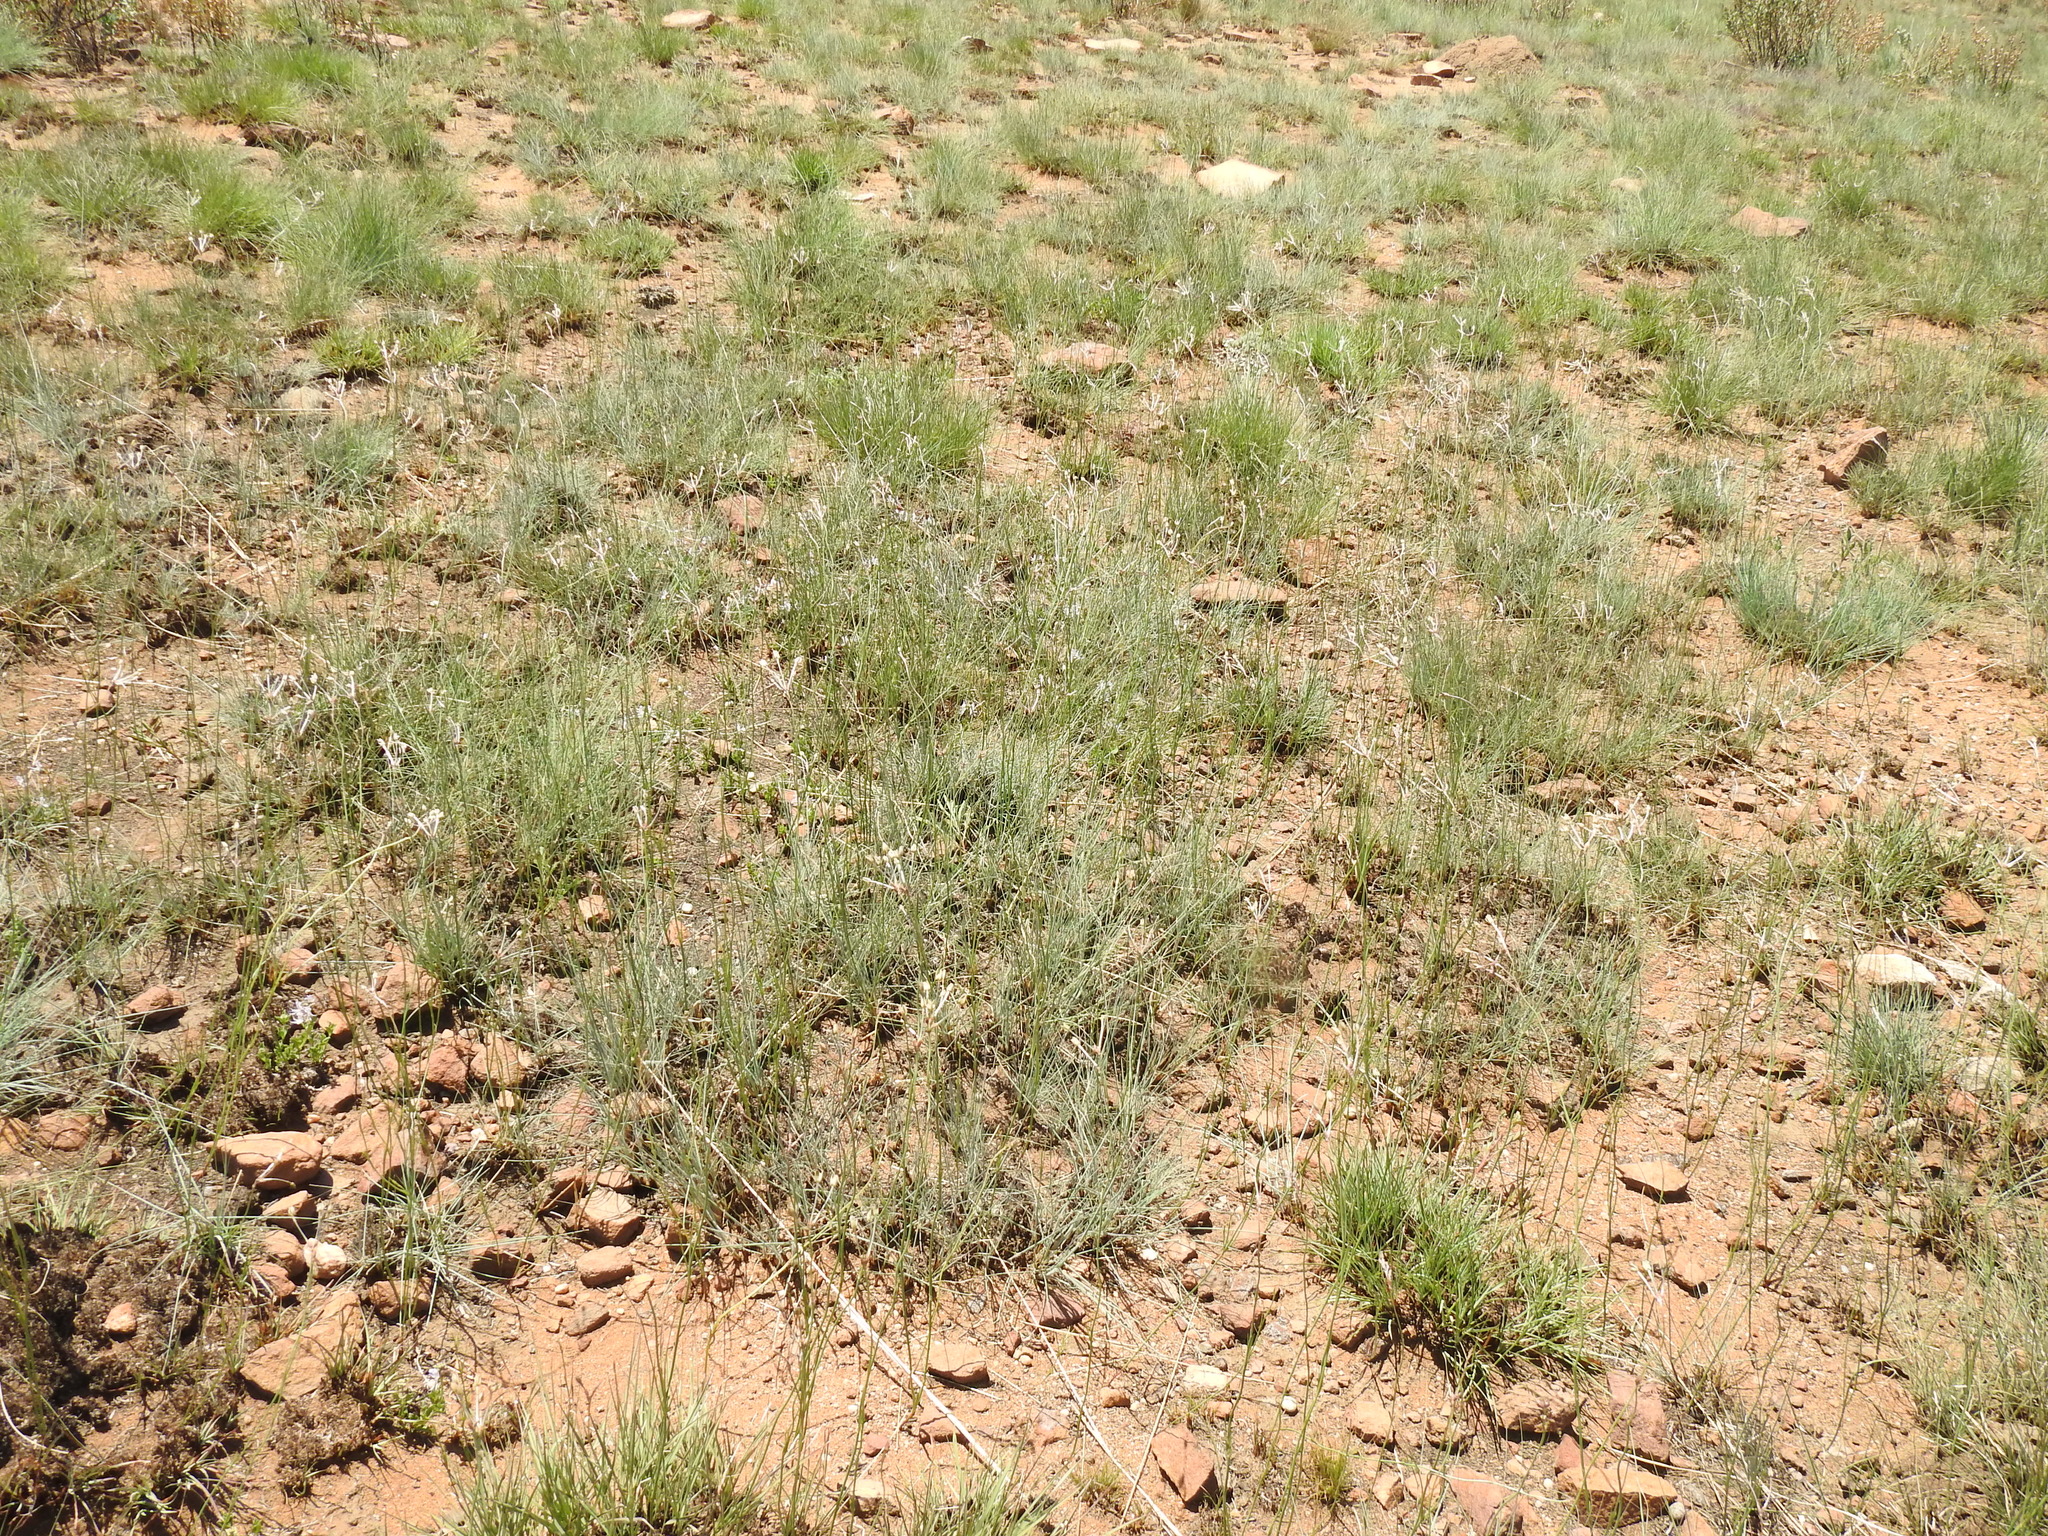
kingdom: Plantae
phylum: Tracheophyta
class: Magnoliopsida
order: Gentianales
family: Rubiaceae
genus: Kohautia
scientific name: Kohautia amatymbica
